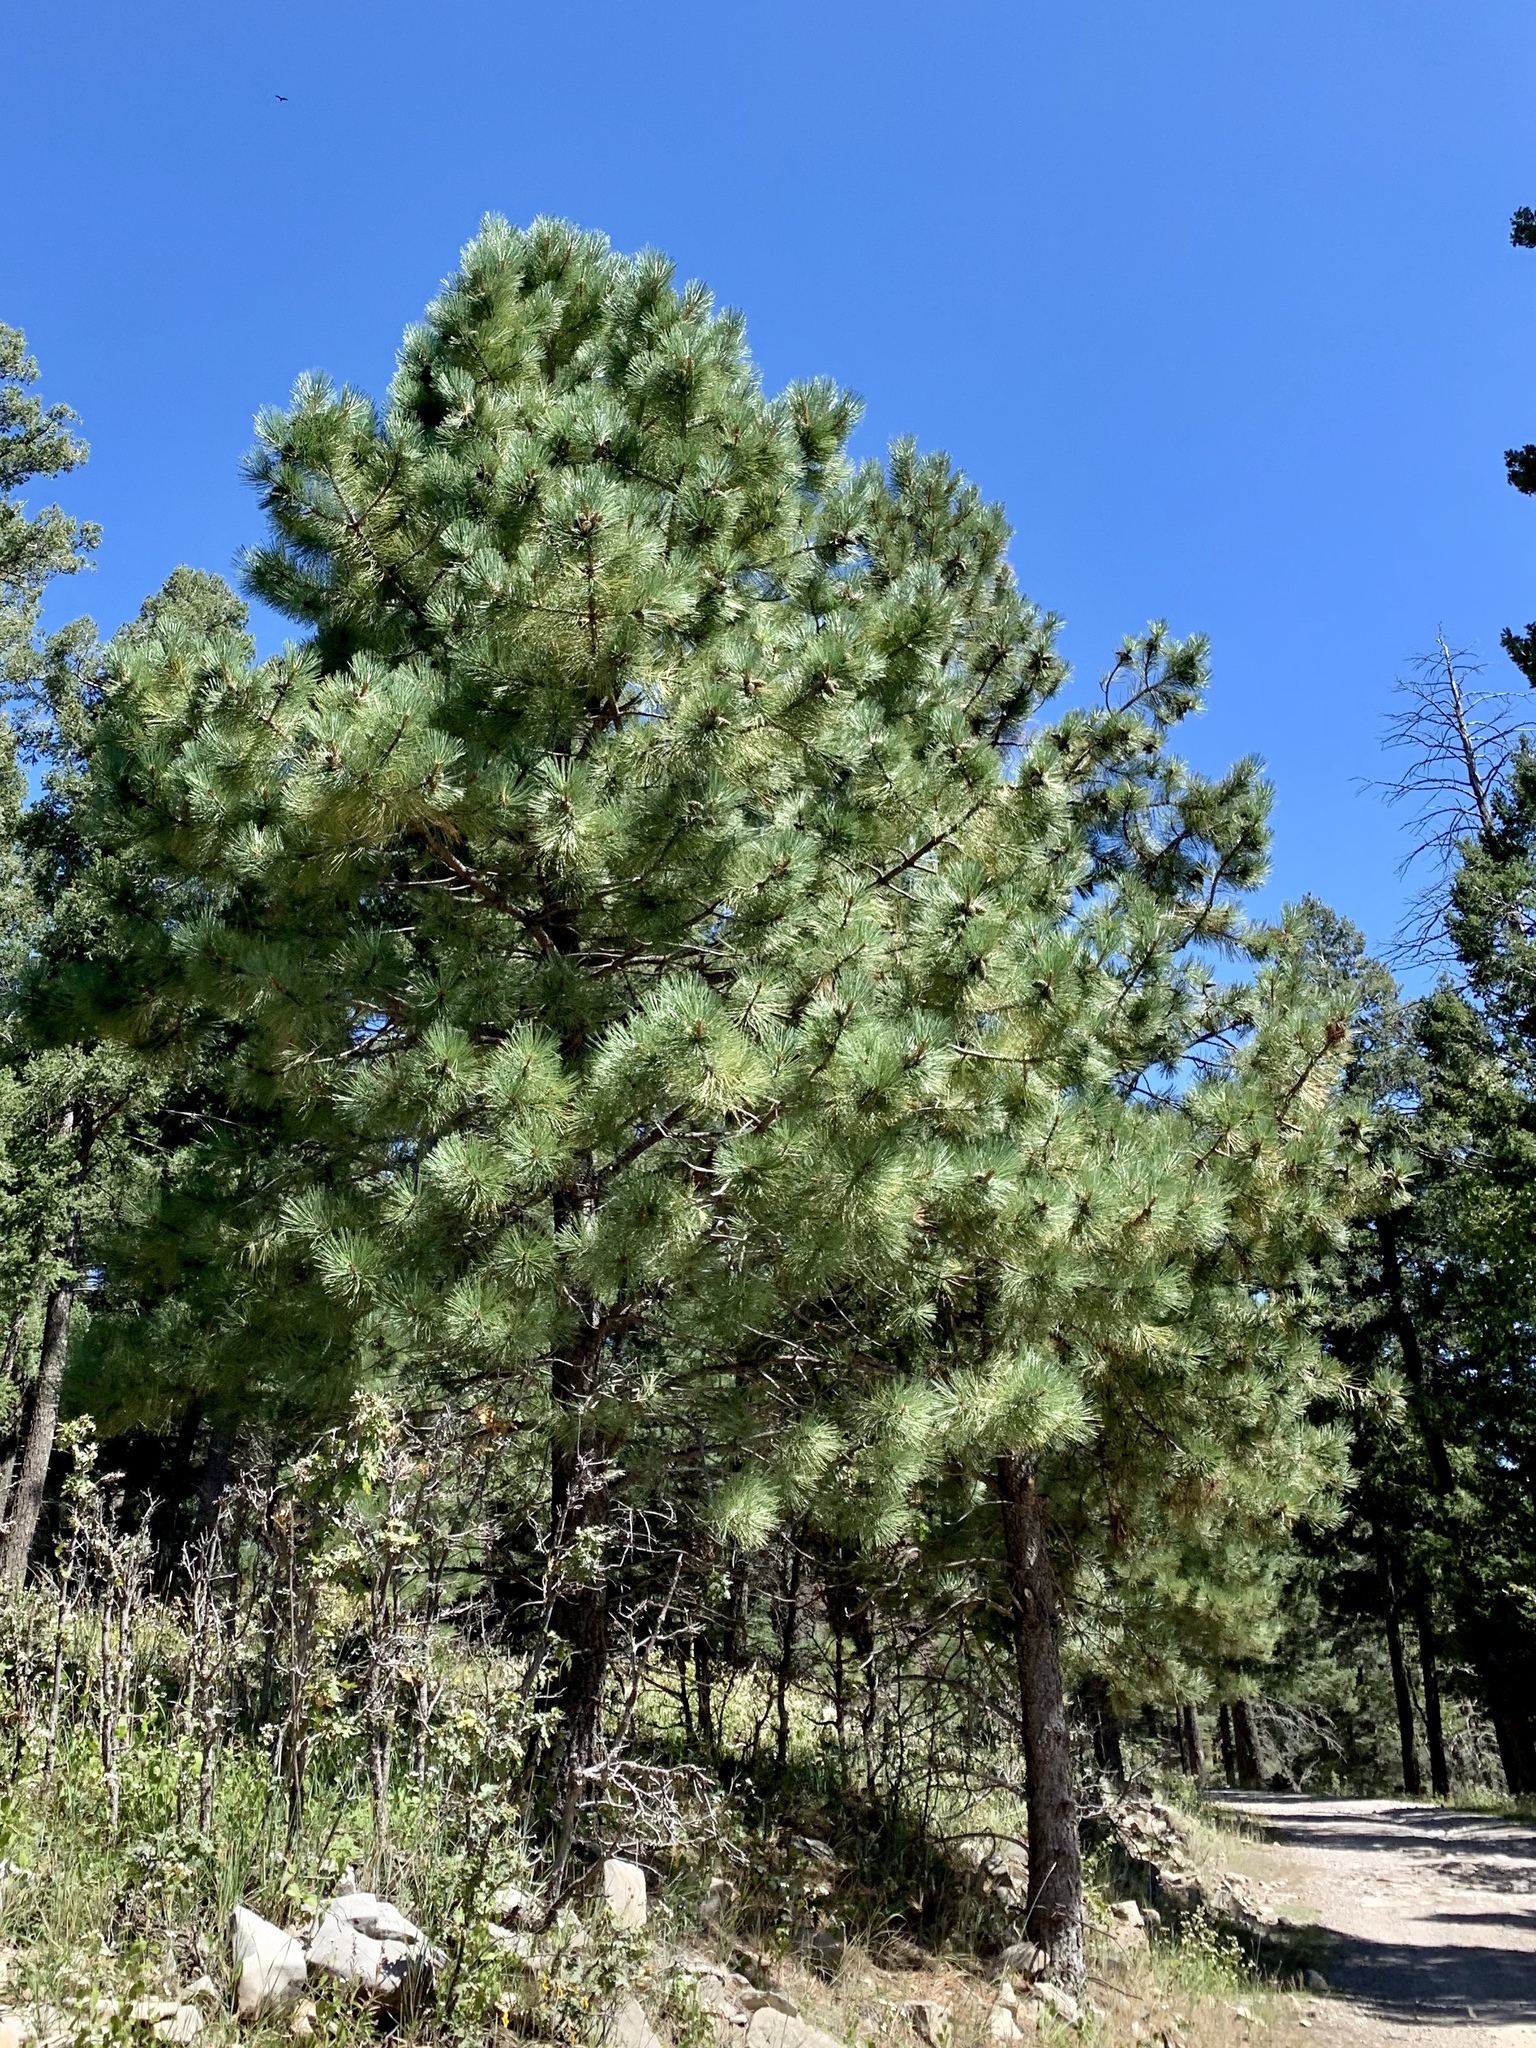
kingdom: Plantae
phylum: Tracheophyta
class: Pinopsida
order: Pinales
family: Pinaceae
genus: Pinus
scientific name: Pinus ponderosa
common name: Western yellow-pine
